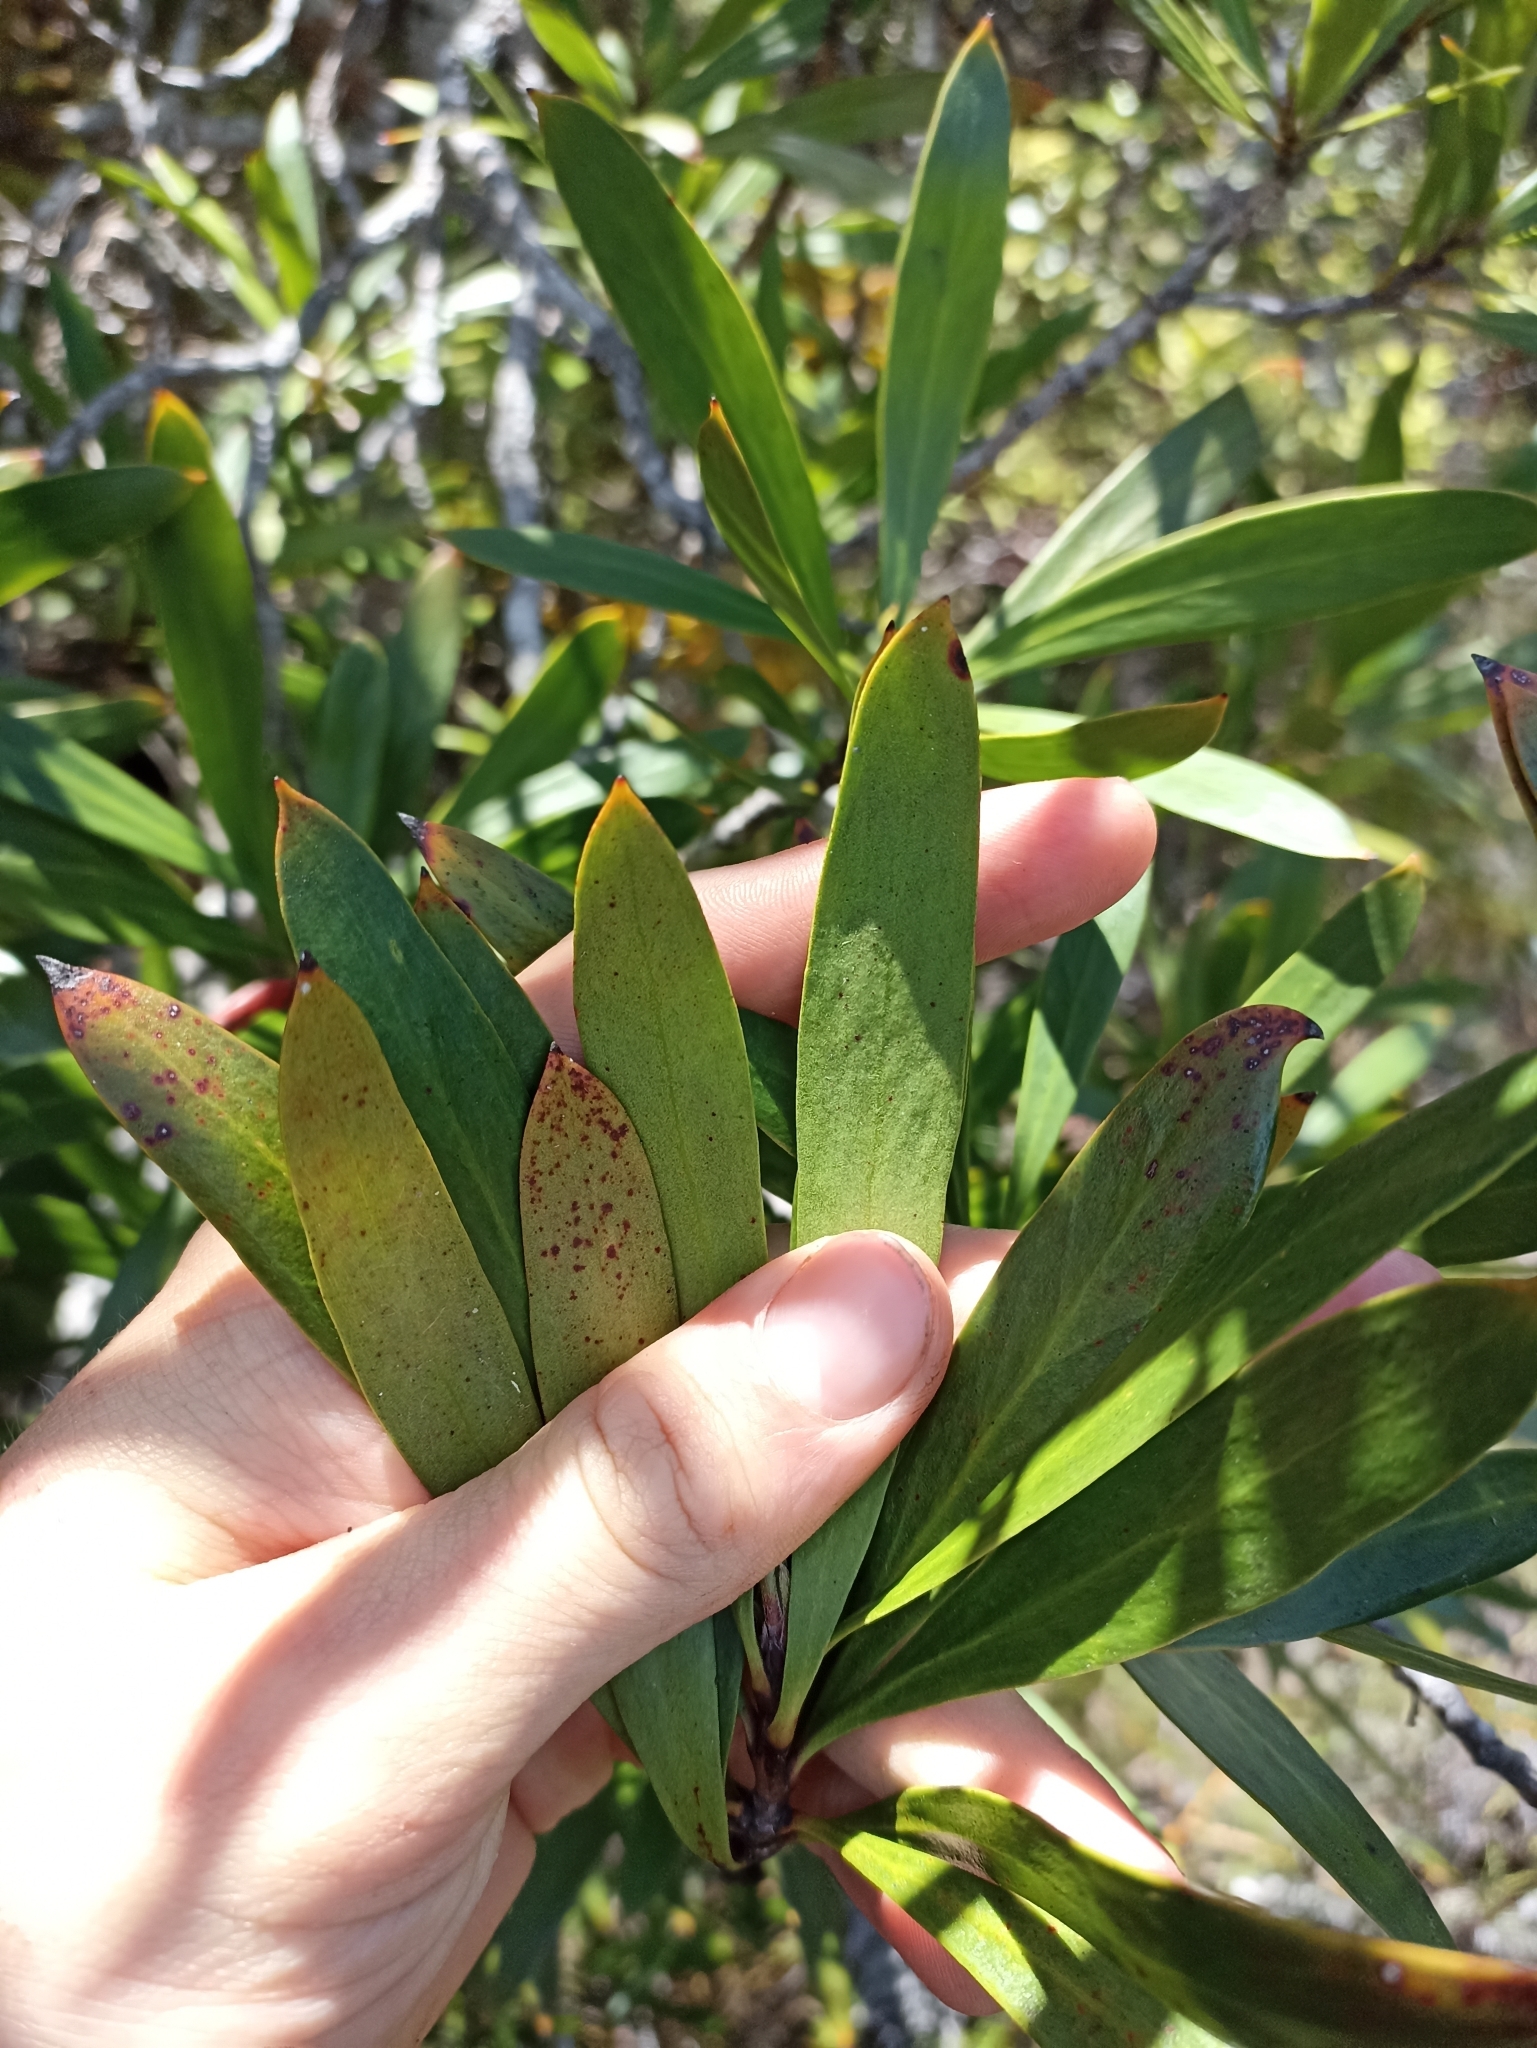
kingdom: Plantae
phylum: Tracheophyta
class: Magnoliopsida
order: Proteales
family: Proteaceae
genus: Toronia
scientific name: Toronia toru
